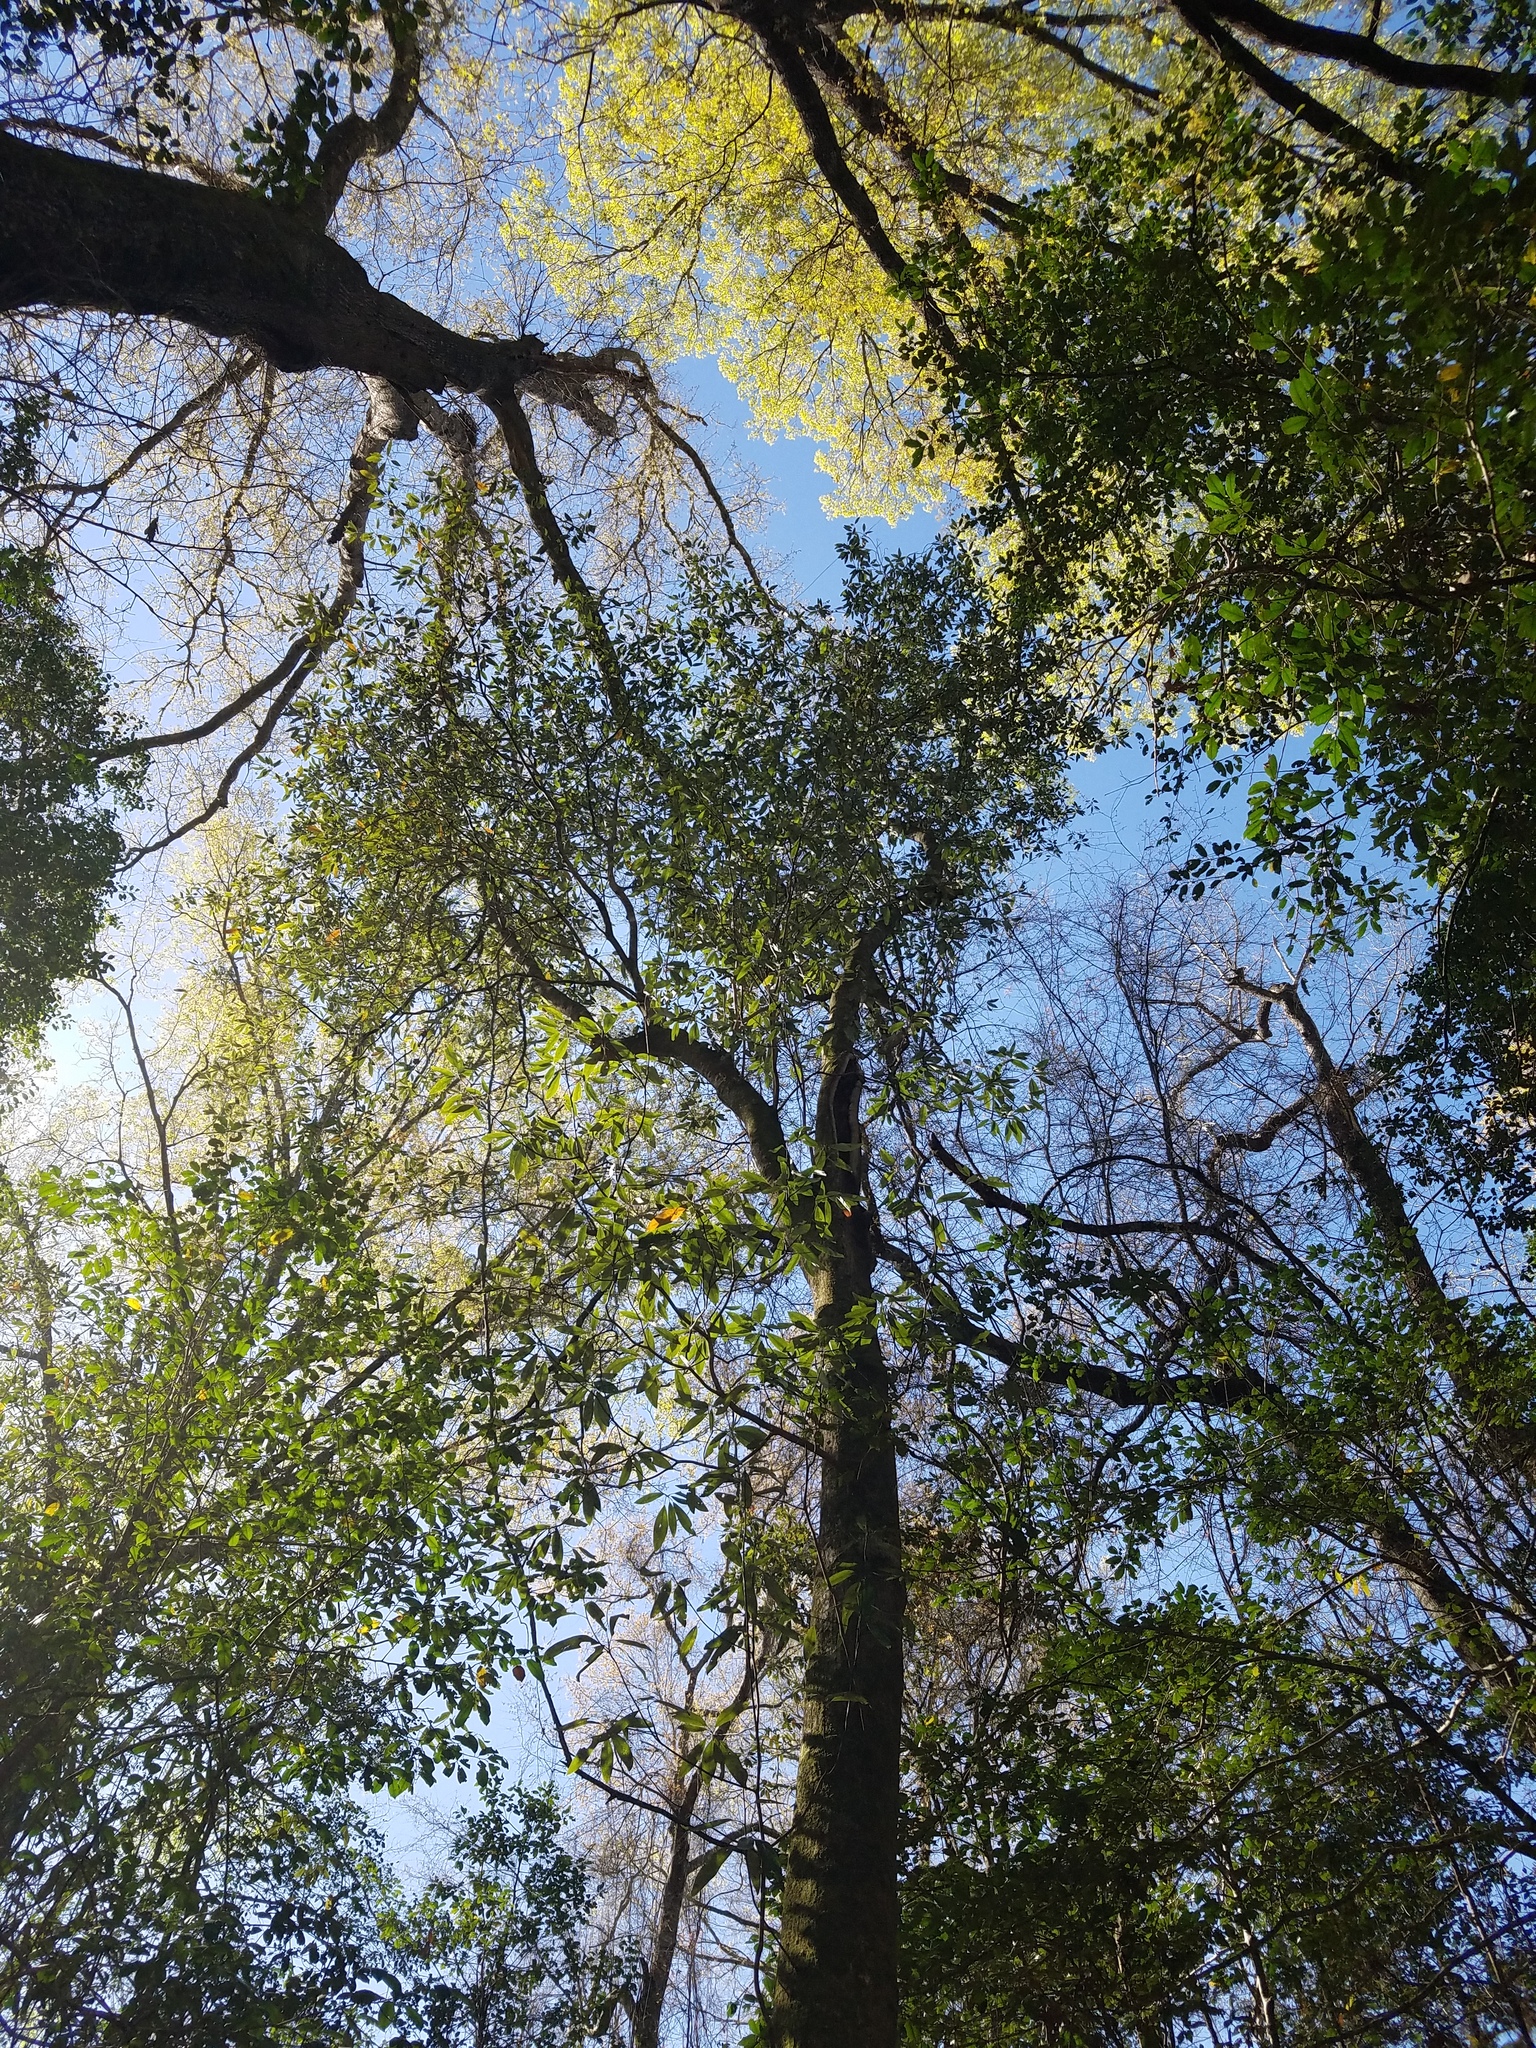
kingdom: Plantae
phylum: Tracheophyta
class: Magnoliopsida
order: Magnoliales
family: Magnoliaceae
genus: Magnolia
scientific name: Magnolia virginiana
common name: Swamp bay
